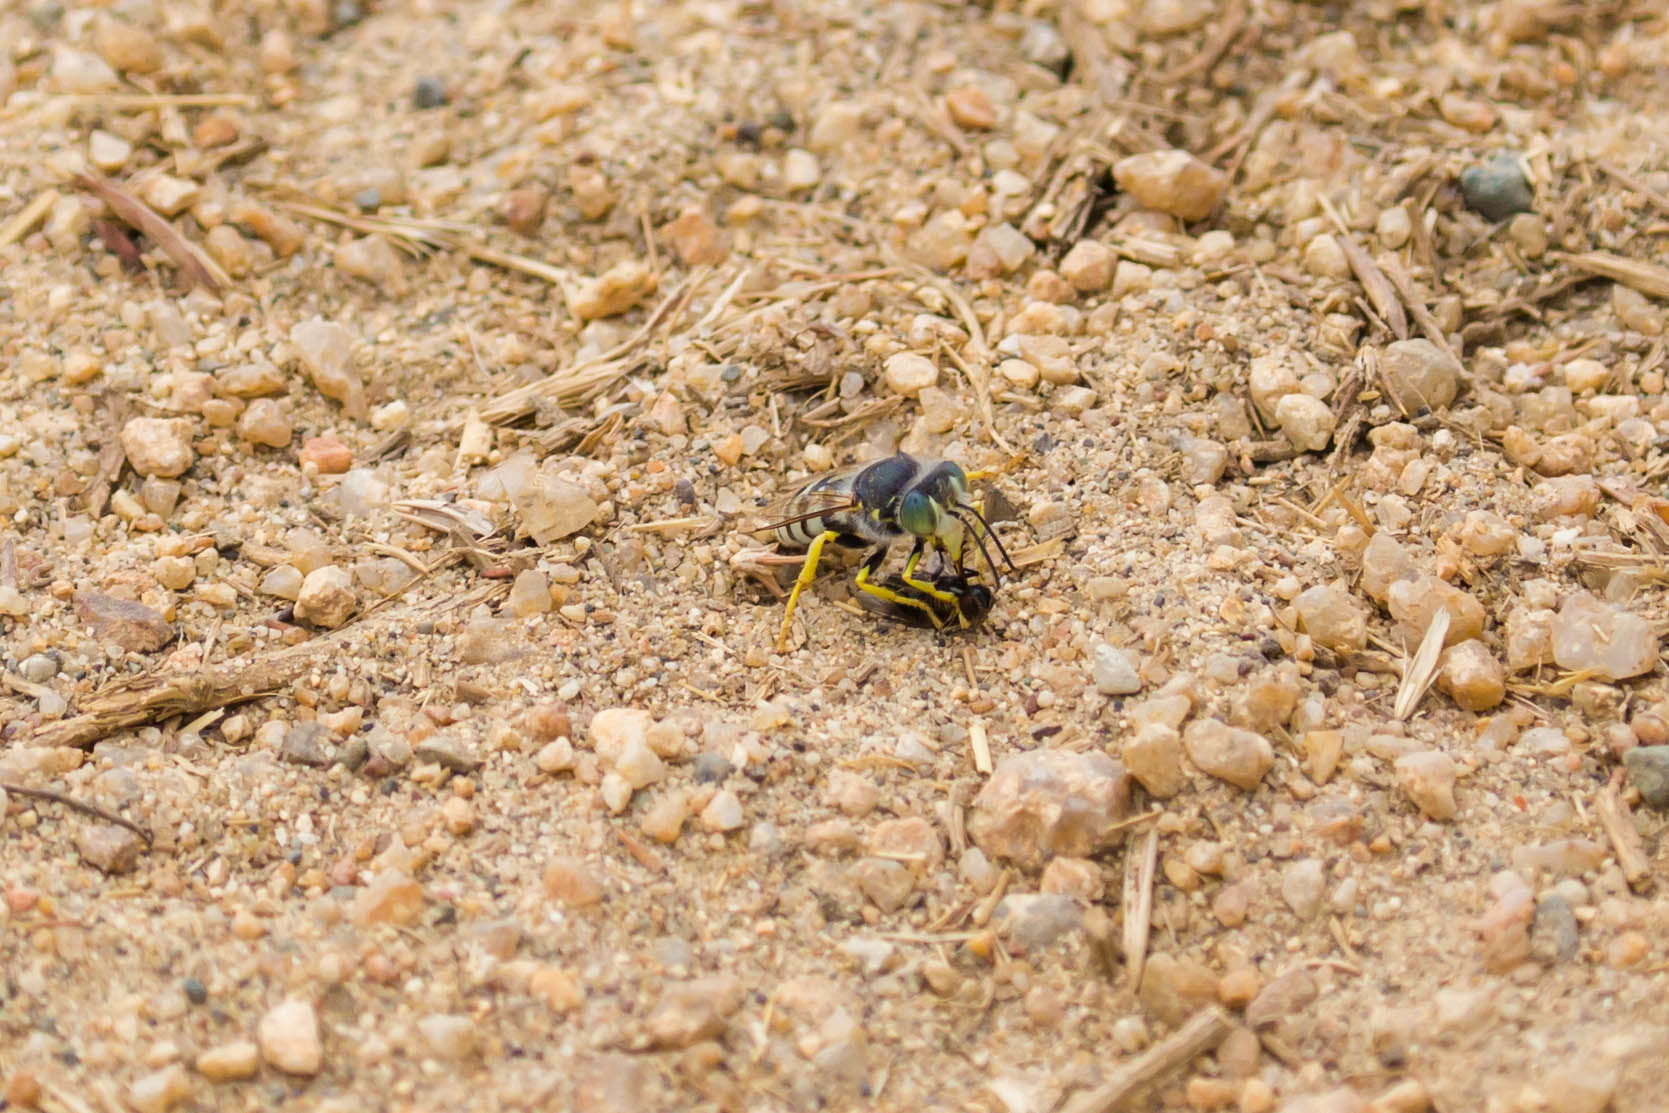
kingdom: Animalia
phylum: Arthropoda
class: Insecta
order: Hymenoptera
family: Crabronidae
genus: Bembix
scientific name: Bembix americana
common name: American sand wasp
